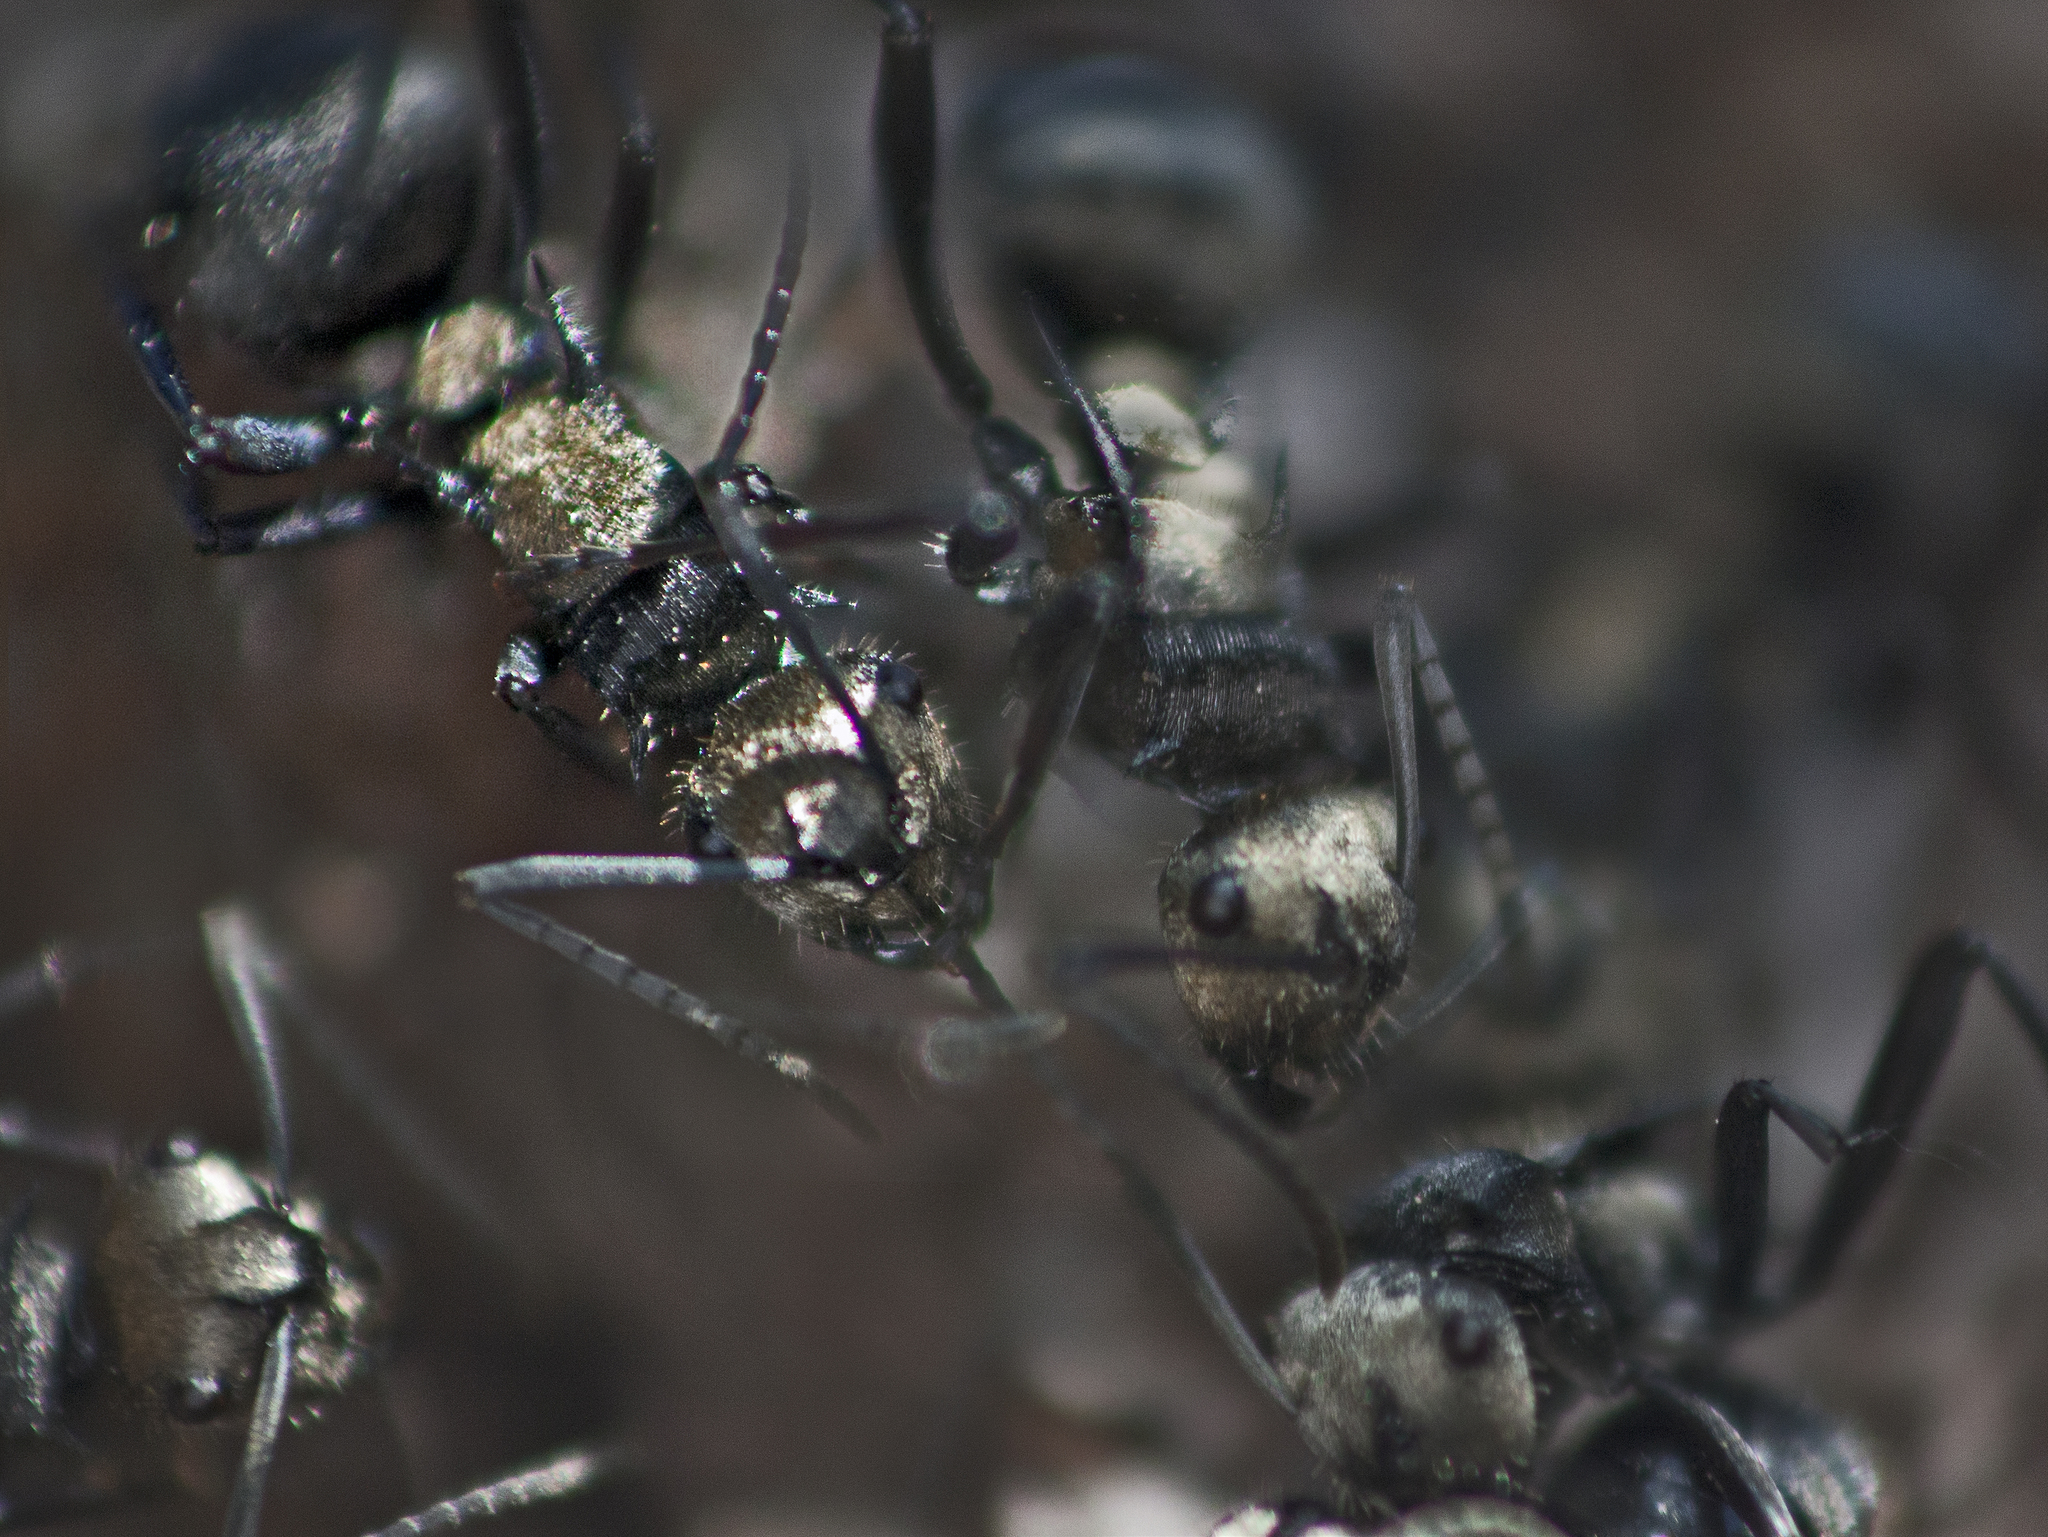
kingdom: Animalia
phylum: Arthropoda
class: Insecta
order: Hymenoptera
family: Formicidae
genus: Polyrhachis
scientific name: Polyrhachis daemeli
